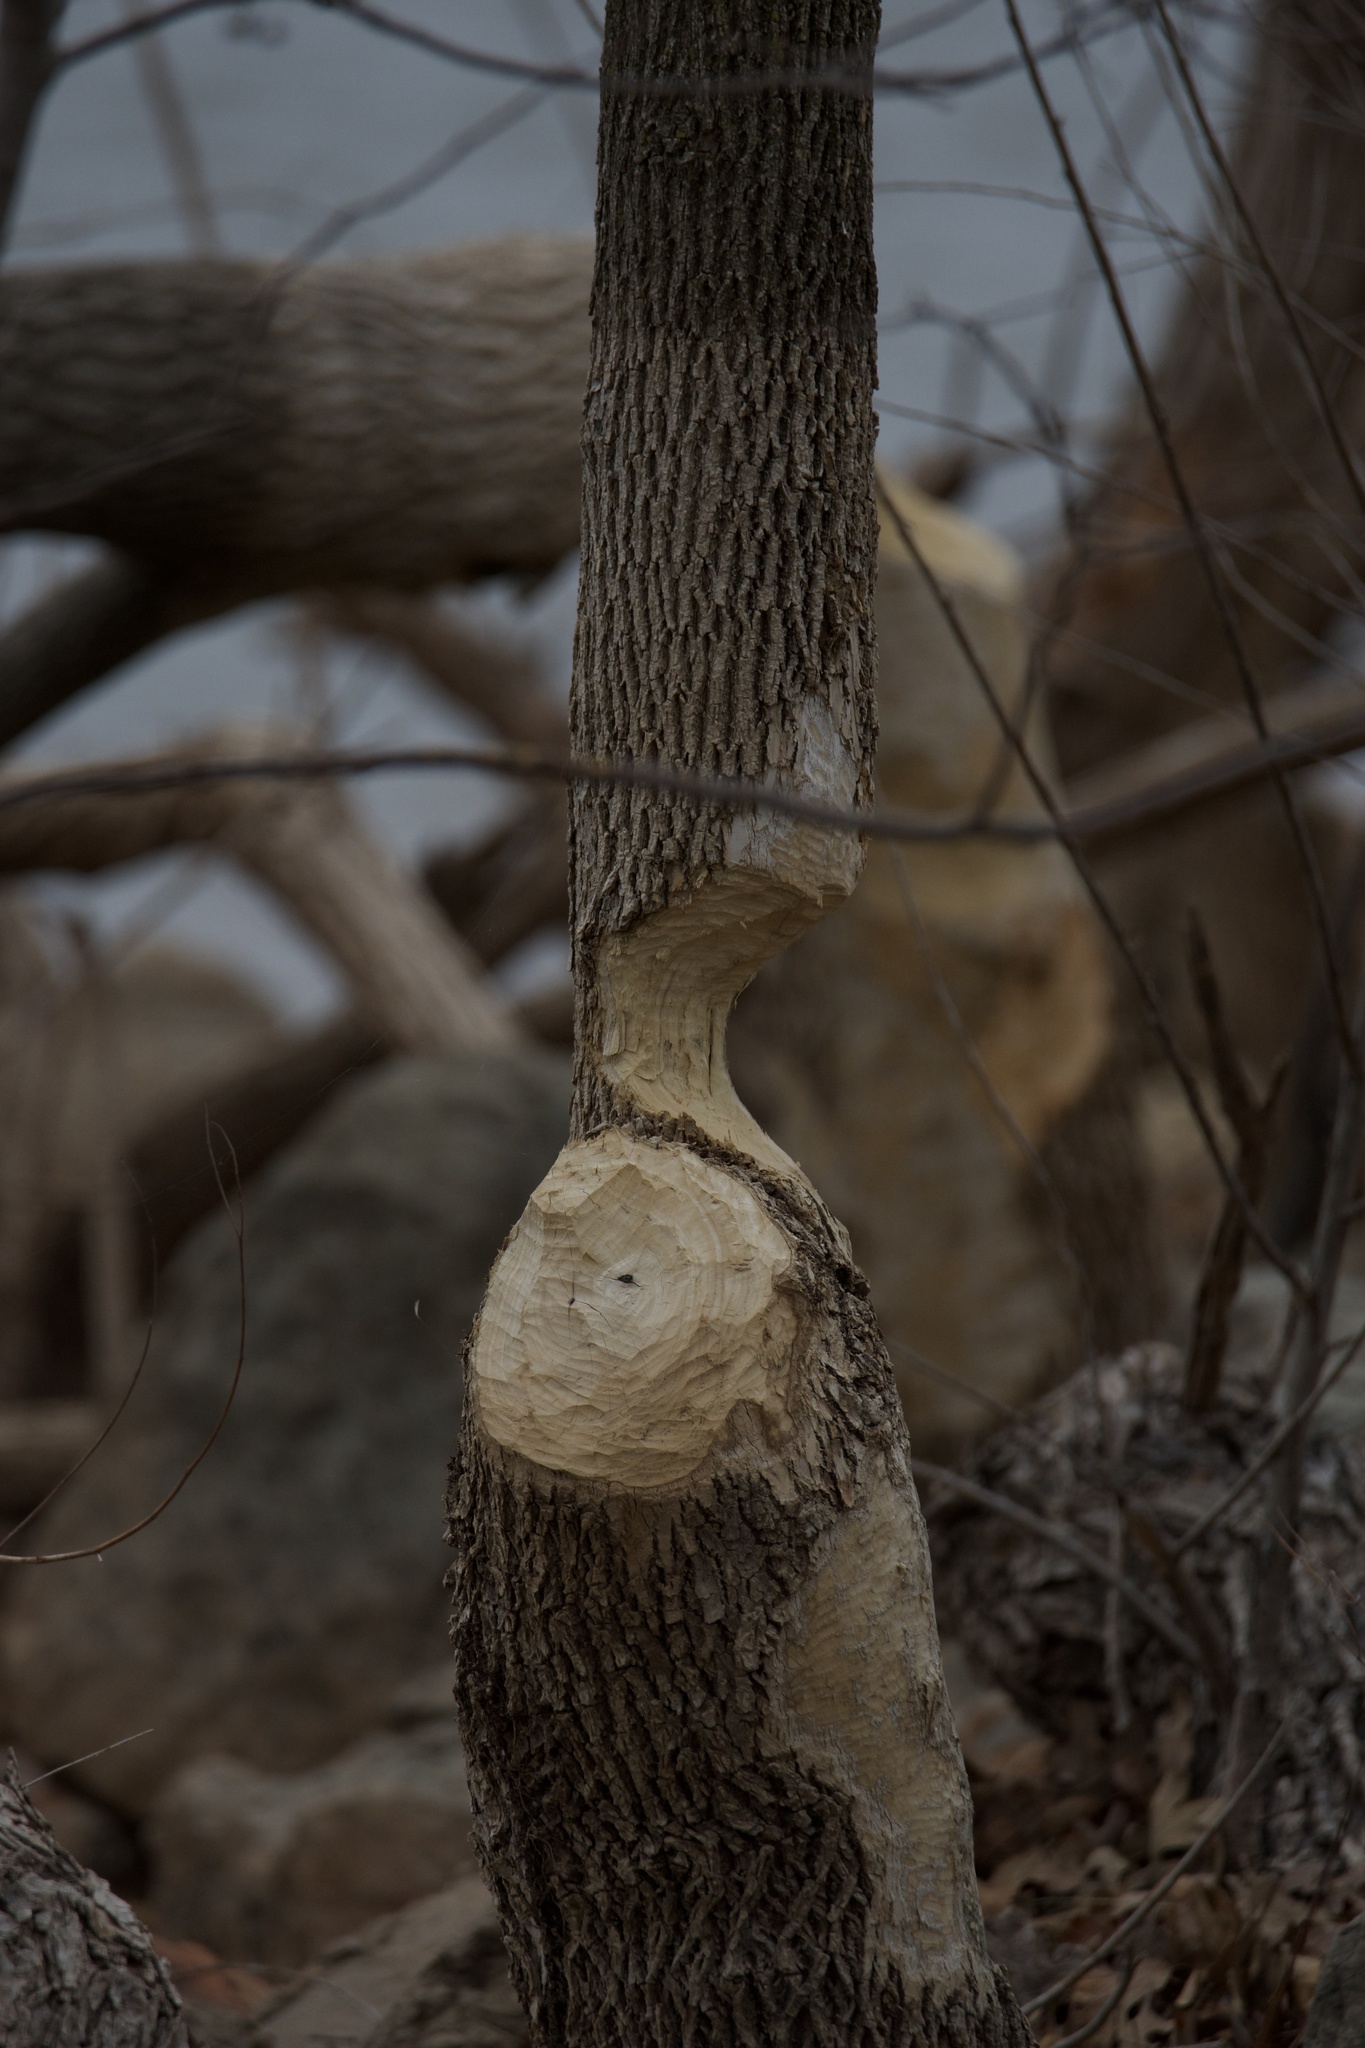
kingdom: Animalia
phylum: Chordata
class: Mammalia
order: Rodentia
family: Castoridae
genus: Castor
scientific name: Castor canadensis
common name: American beaver
